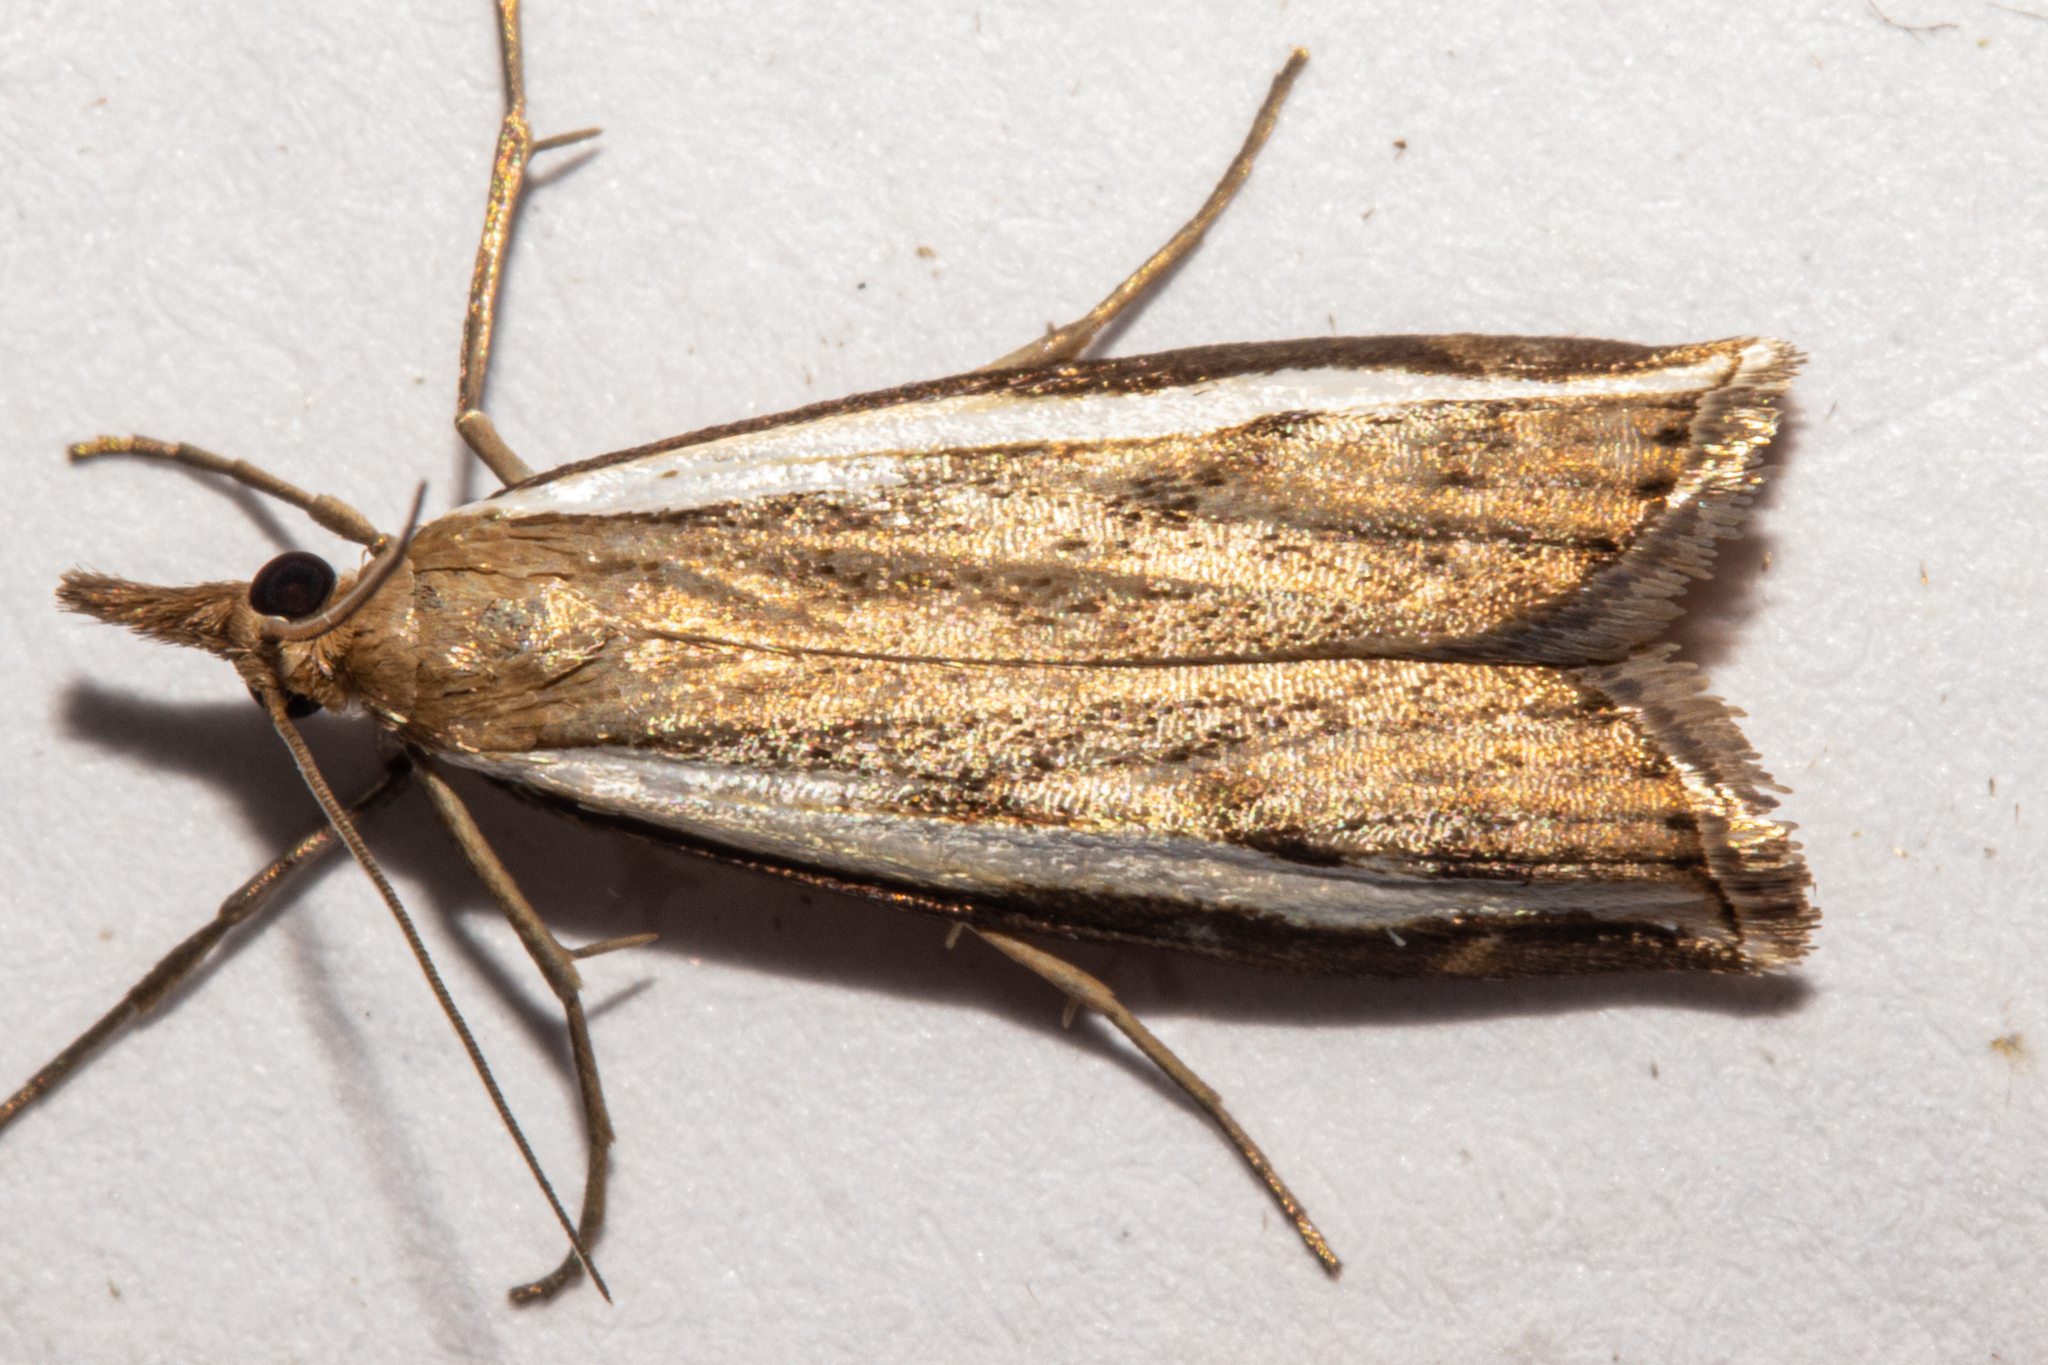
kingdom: Animalia
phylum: Arthropoda
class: Insecta
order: Lepidoptera
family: Crambidae
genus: Orocrambus
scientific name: Orocrambus flexuosellus
